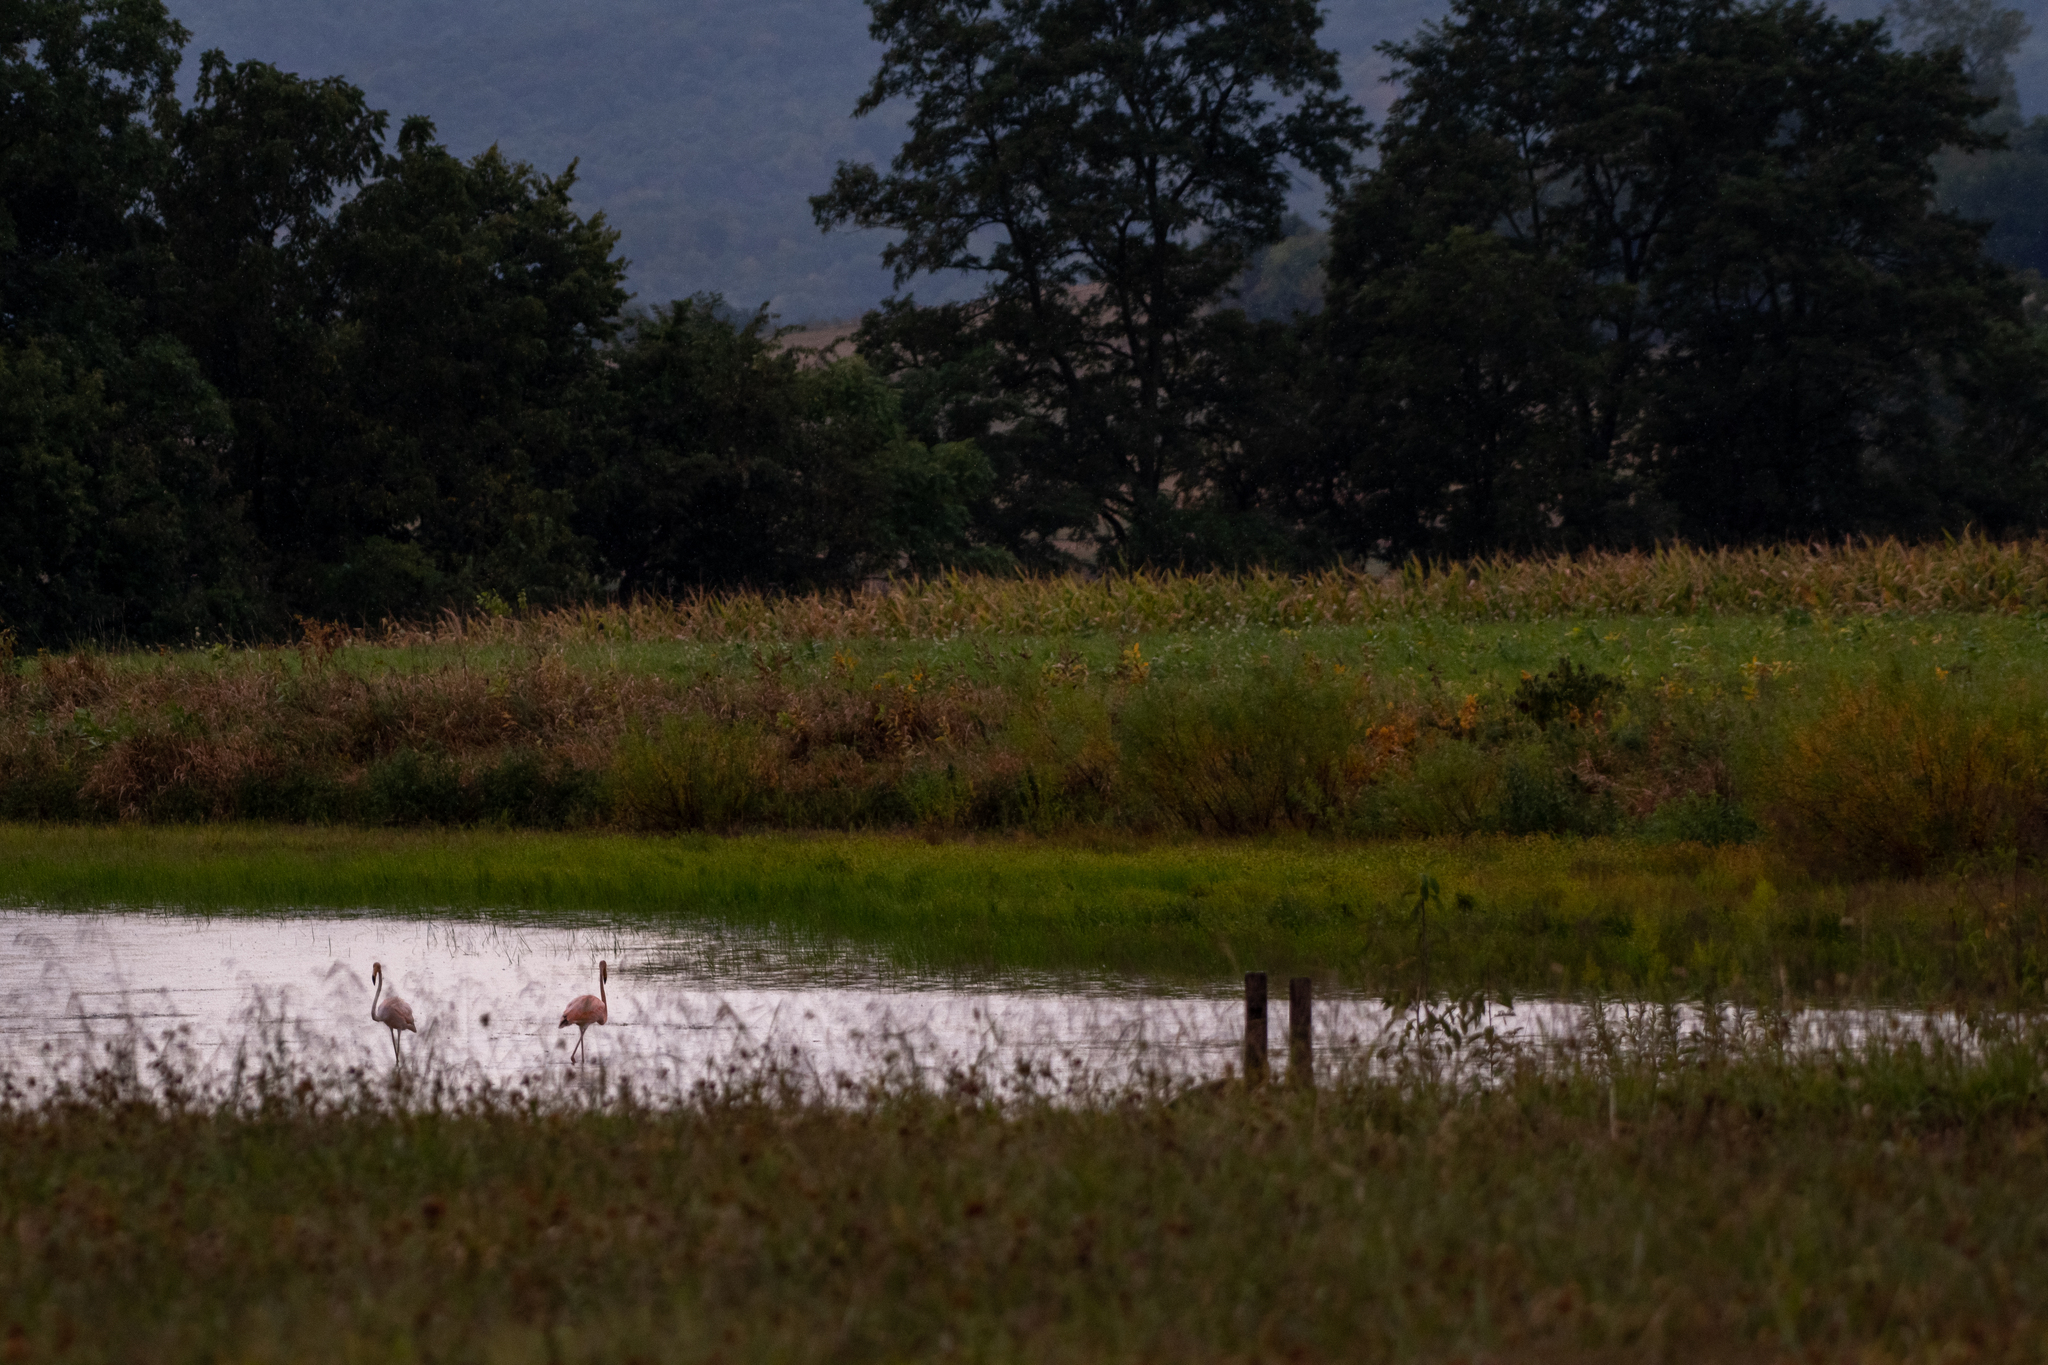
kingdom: Animalia
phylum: Chordata
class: Aves
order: Phoenicopteriformes
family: Phoenicopteridae
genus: Phoenicopterus
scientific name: Phoenicopterus ruber
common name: American flamingo
